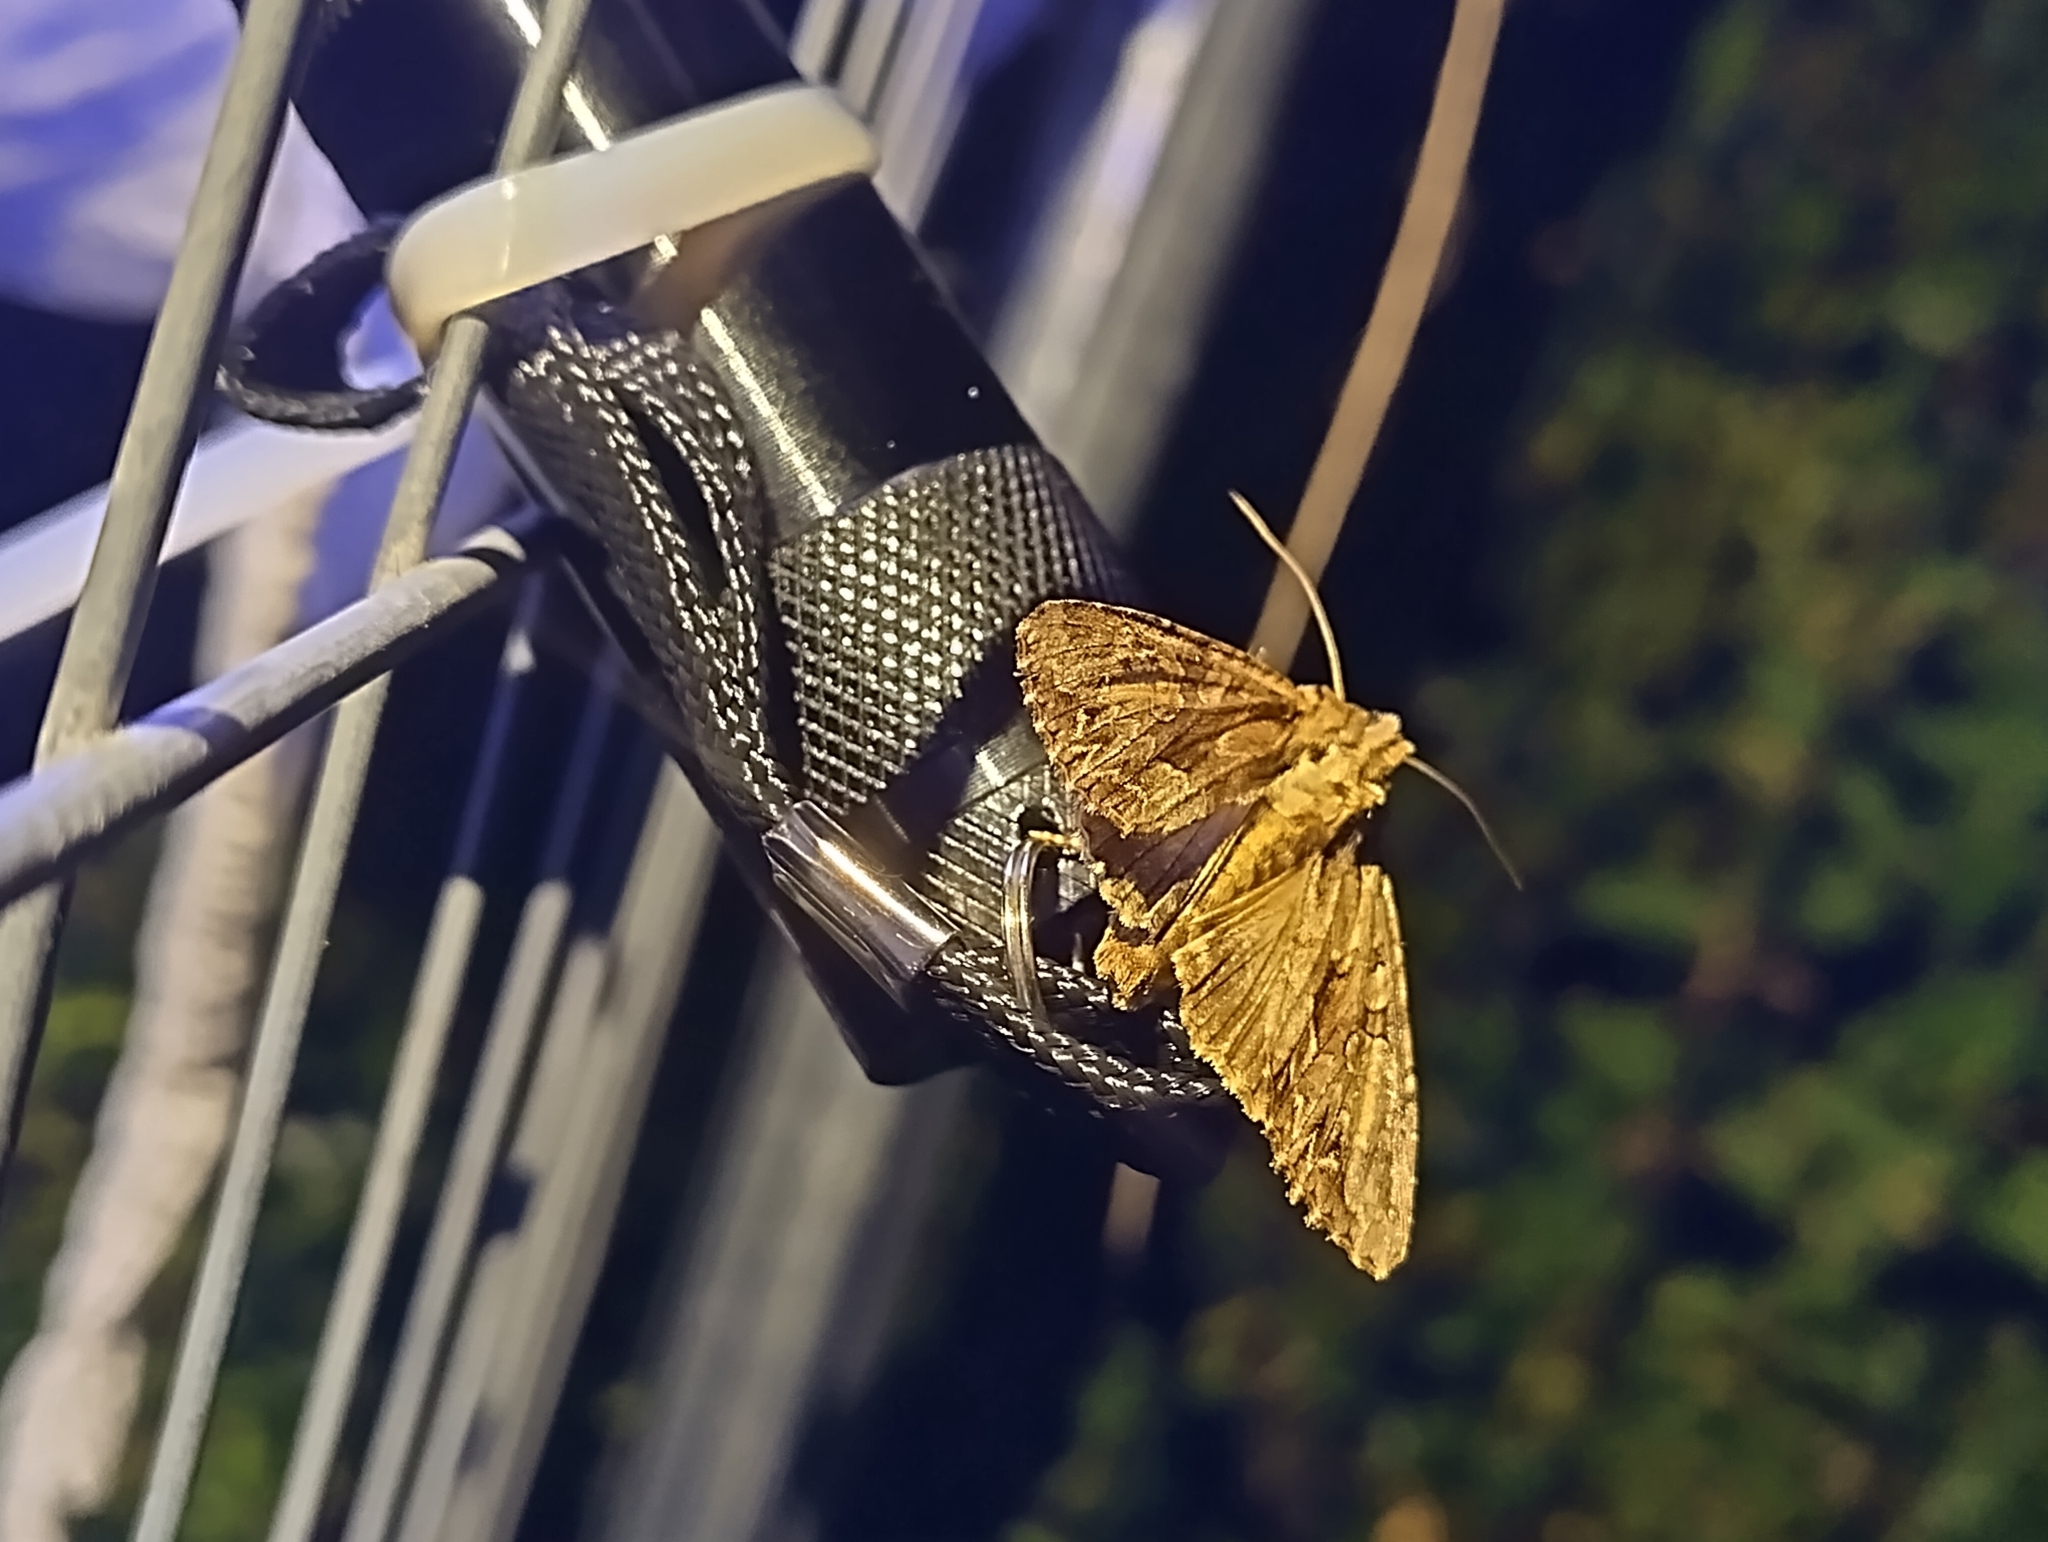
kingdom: Animalia
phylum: Arthropoda
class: Insecta
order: Lepidoptera
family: Noctuidae
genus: Apamea
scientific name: Apamea monoglypha
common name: Dark arches
